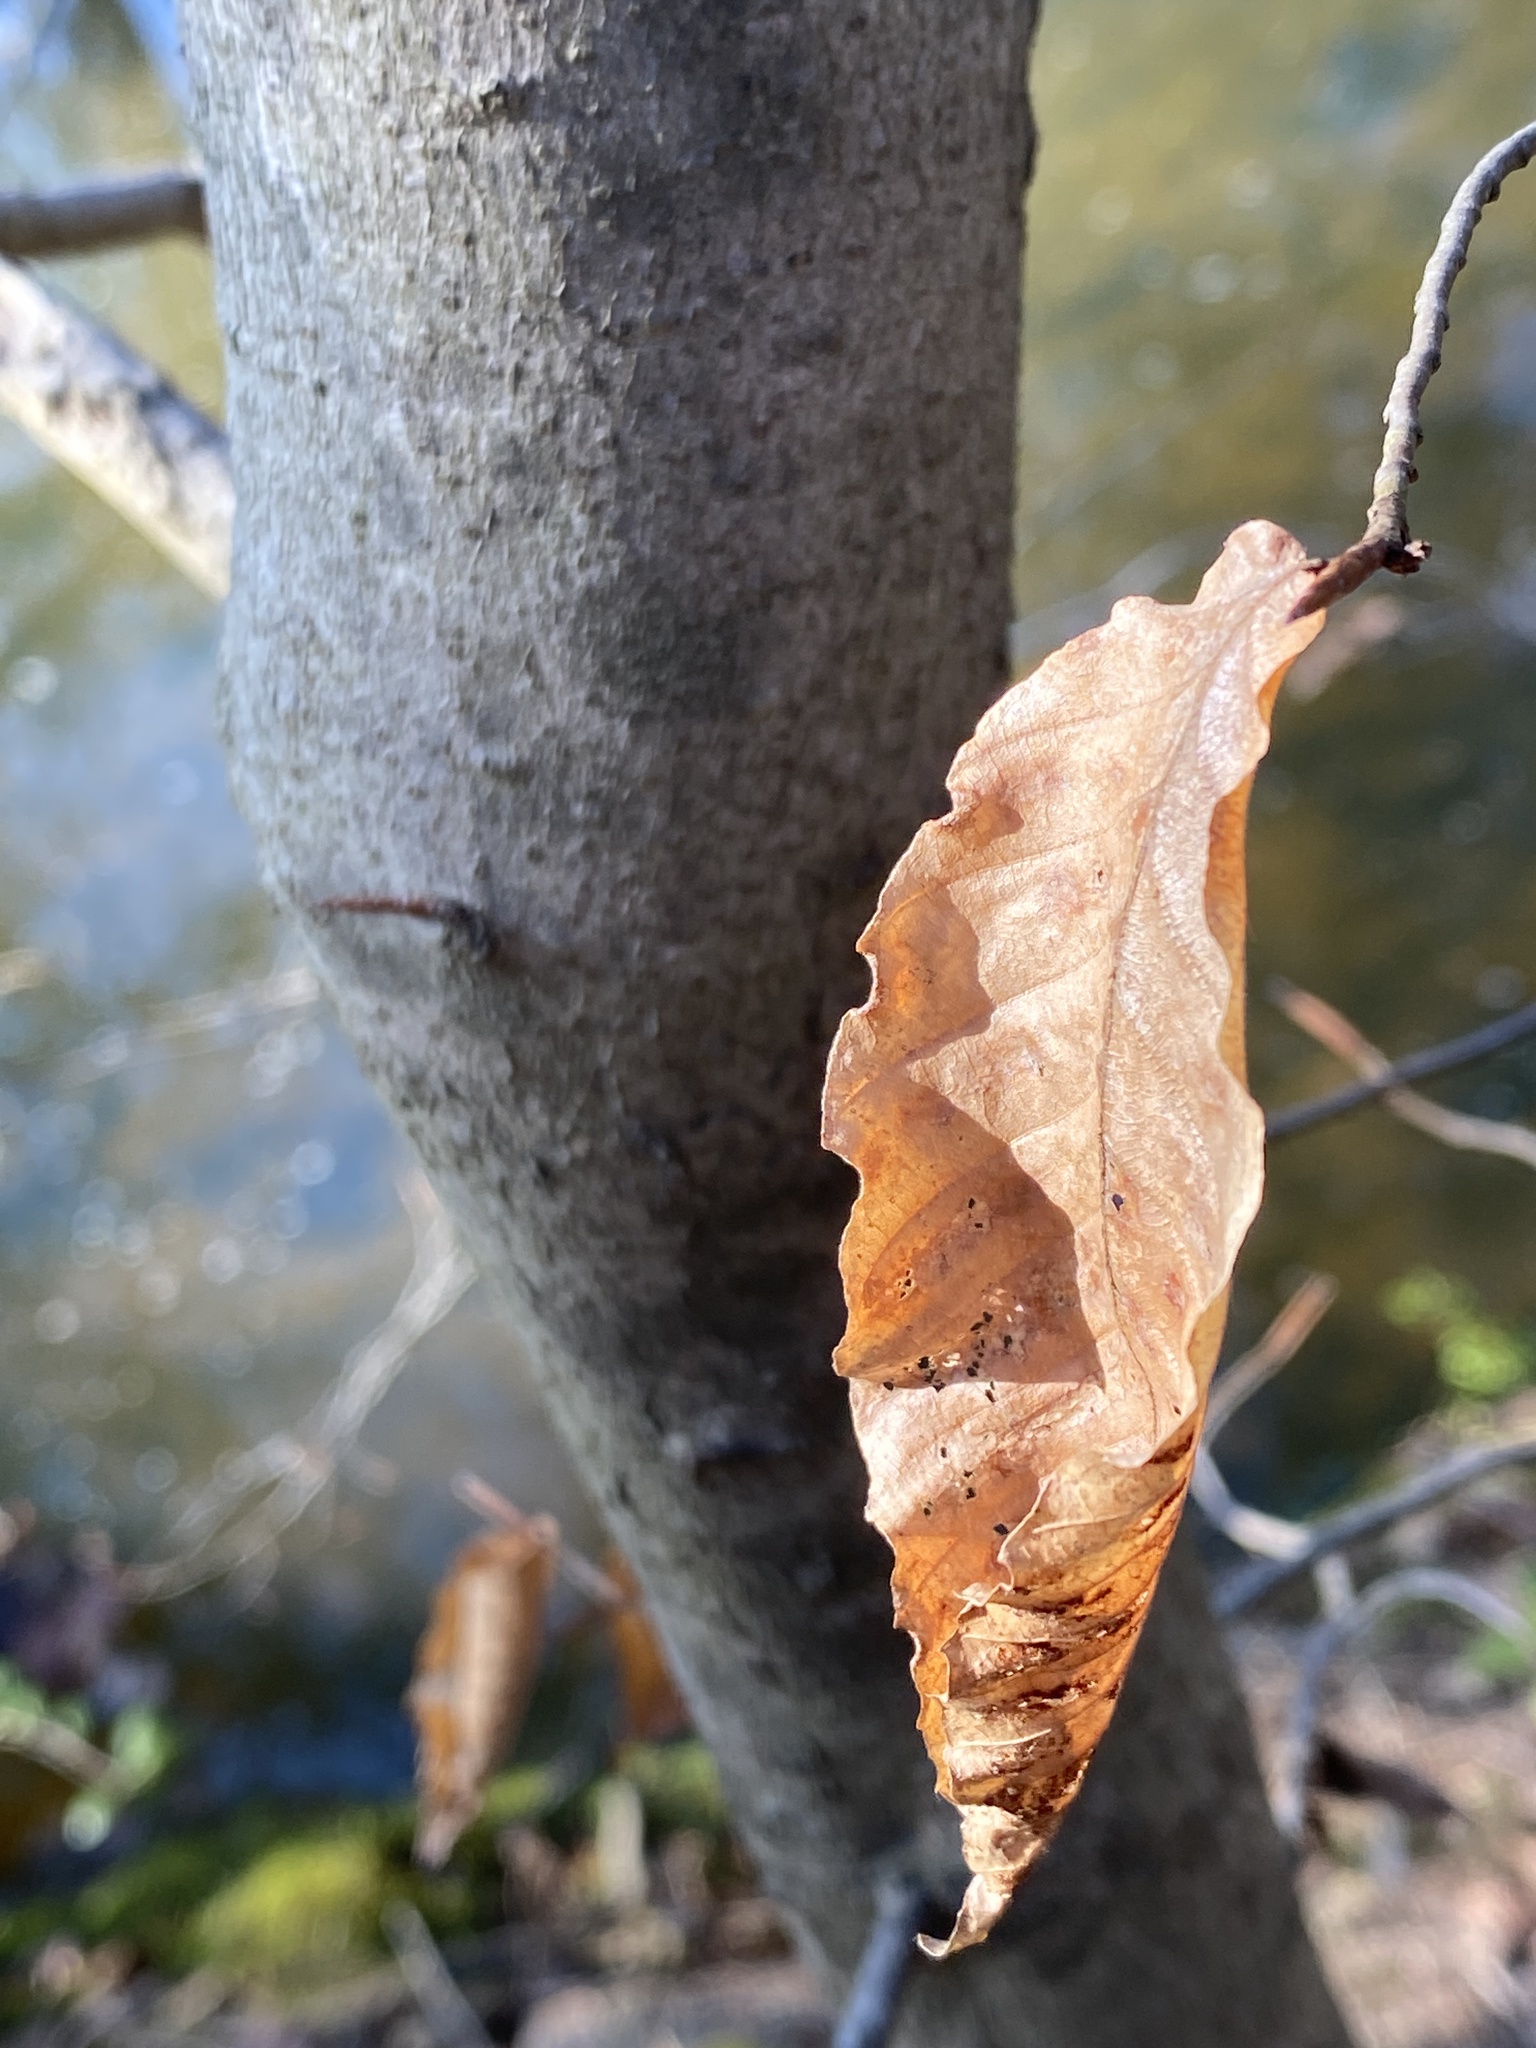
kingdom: Plantae
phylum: Tracheophyta
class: Magnoliopsida
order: Fagales
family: Fagaceae
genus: Fagus
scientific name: Fagus grandifolia
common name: American beech
